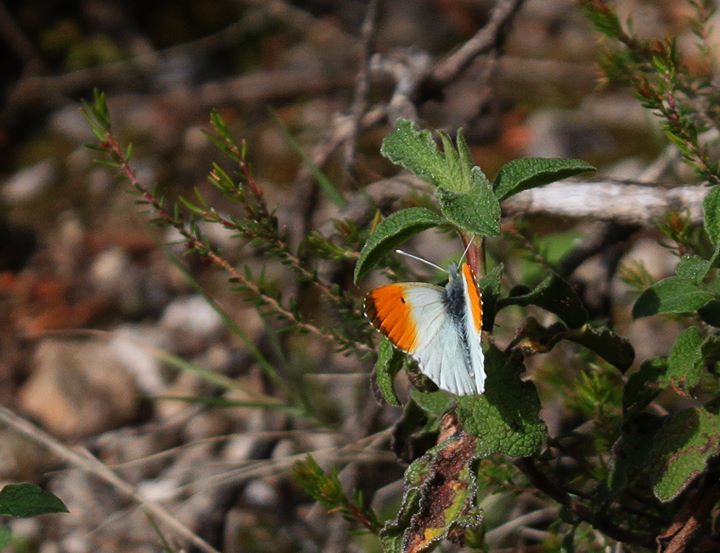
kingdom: Animalia
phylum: Arthropoda
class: Insecta
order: Lepidoptera
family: Pieridae
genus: Anthocharis
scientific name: Anthocharis cardamines
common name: Orange-tip
